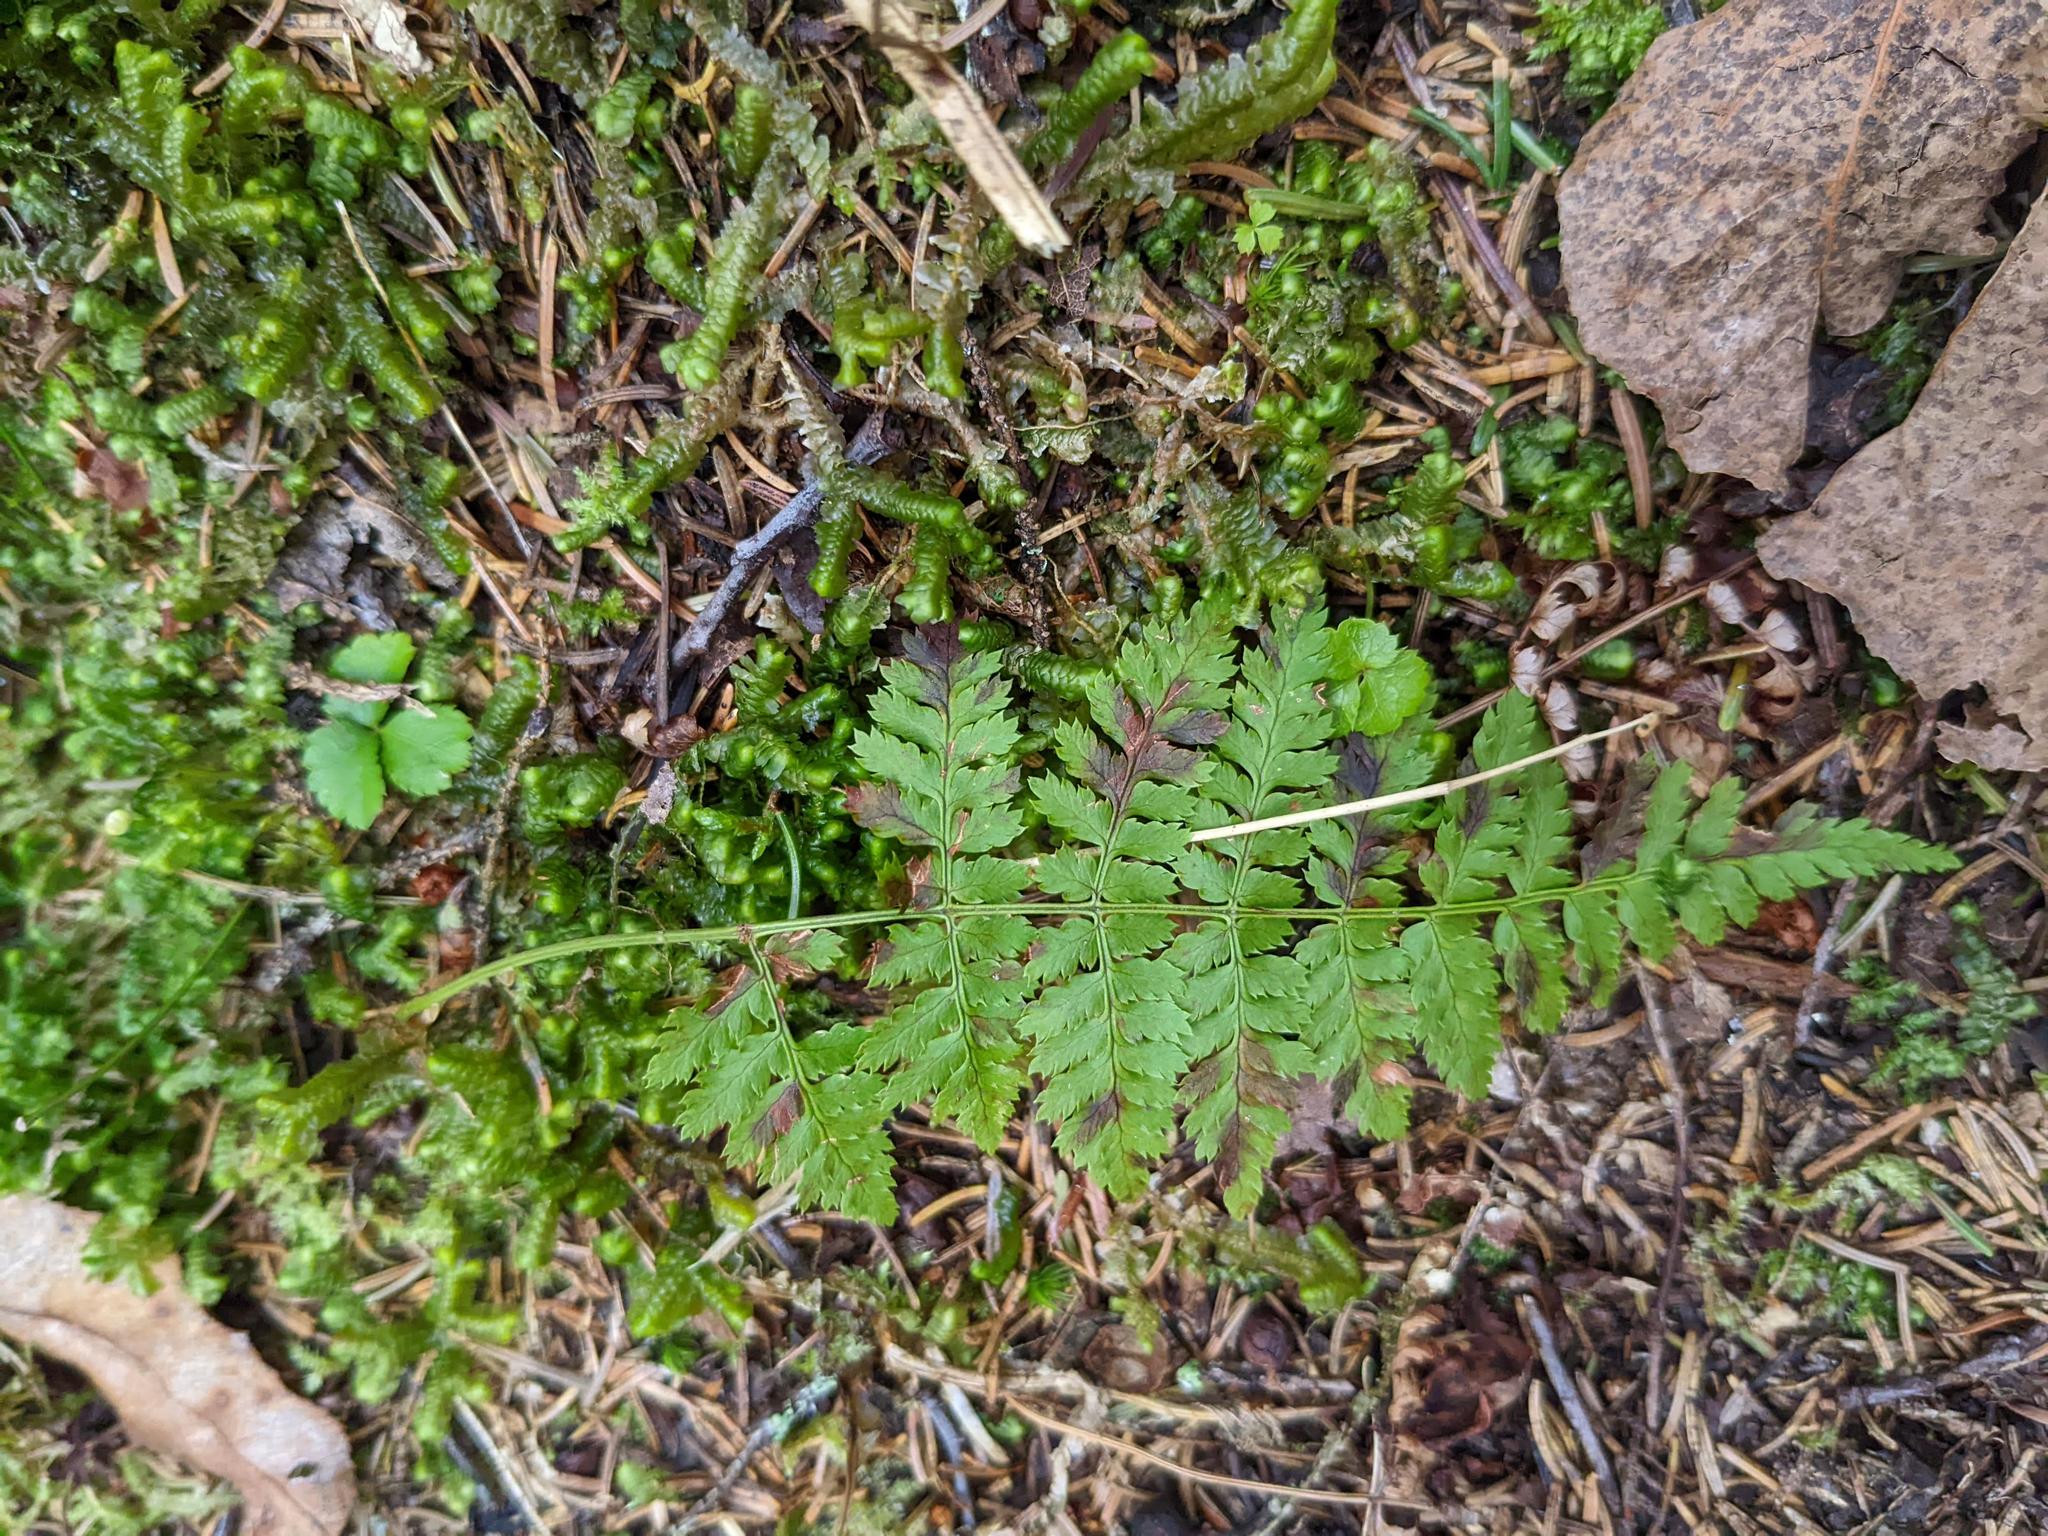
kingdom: Plantae
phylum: Tracheophyta
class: Polypodiopsida
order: Polypodiales
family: Dryopteridaceae
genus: Dryopteris
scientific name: Dryopteris intermedia
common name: Evergreen wood fern
